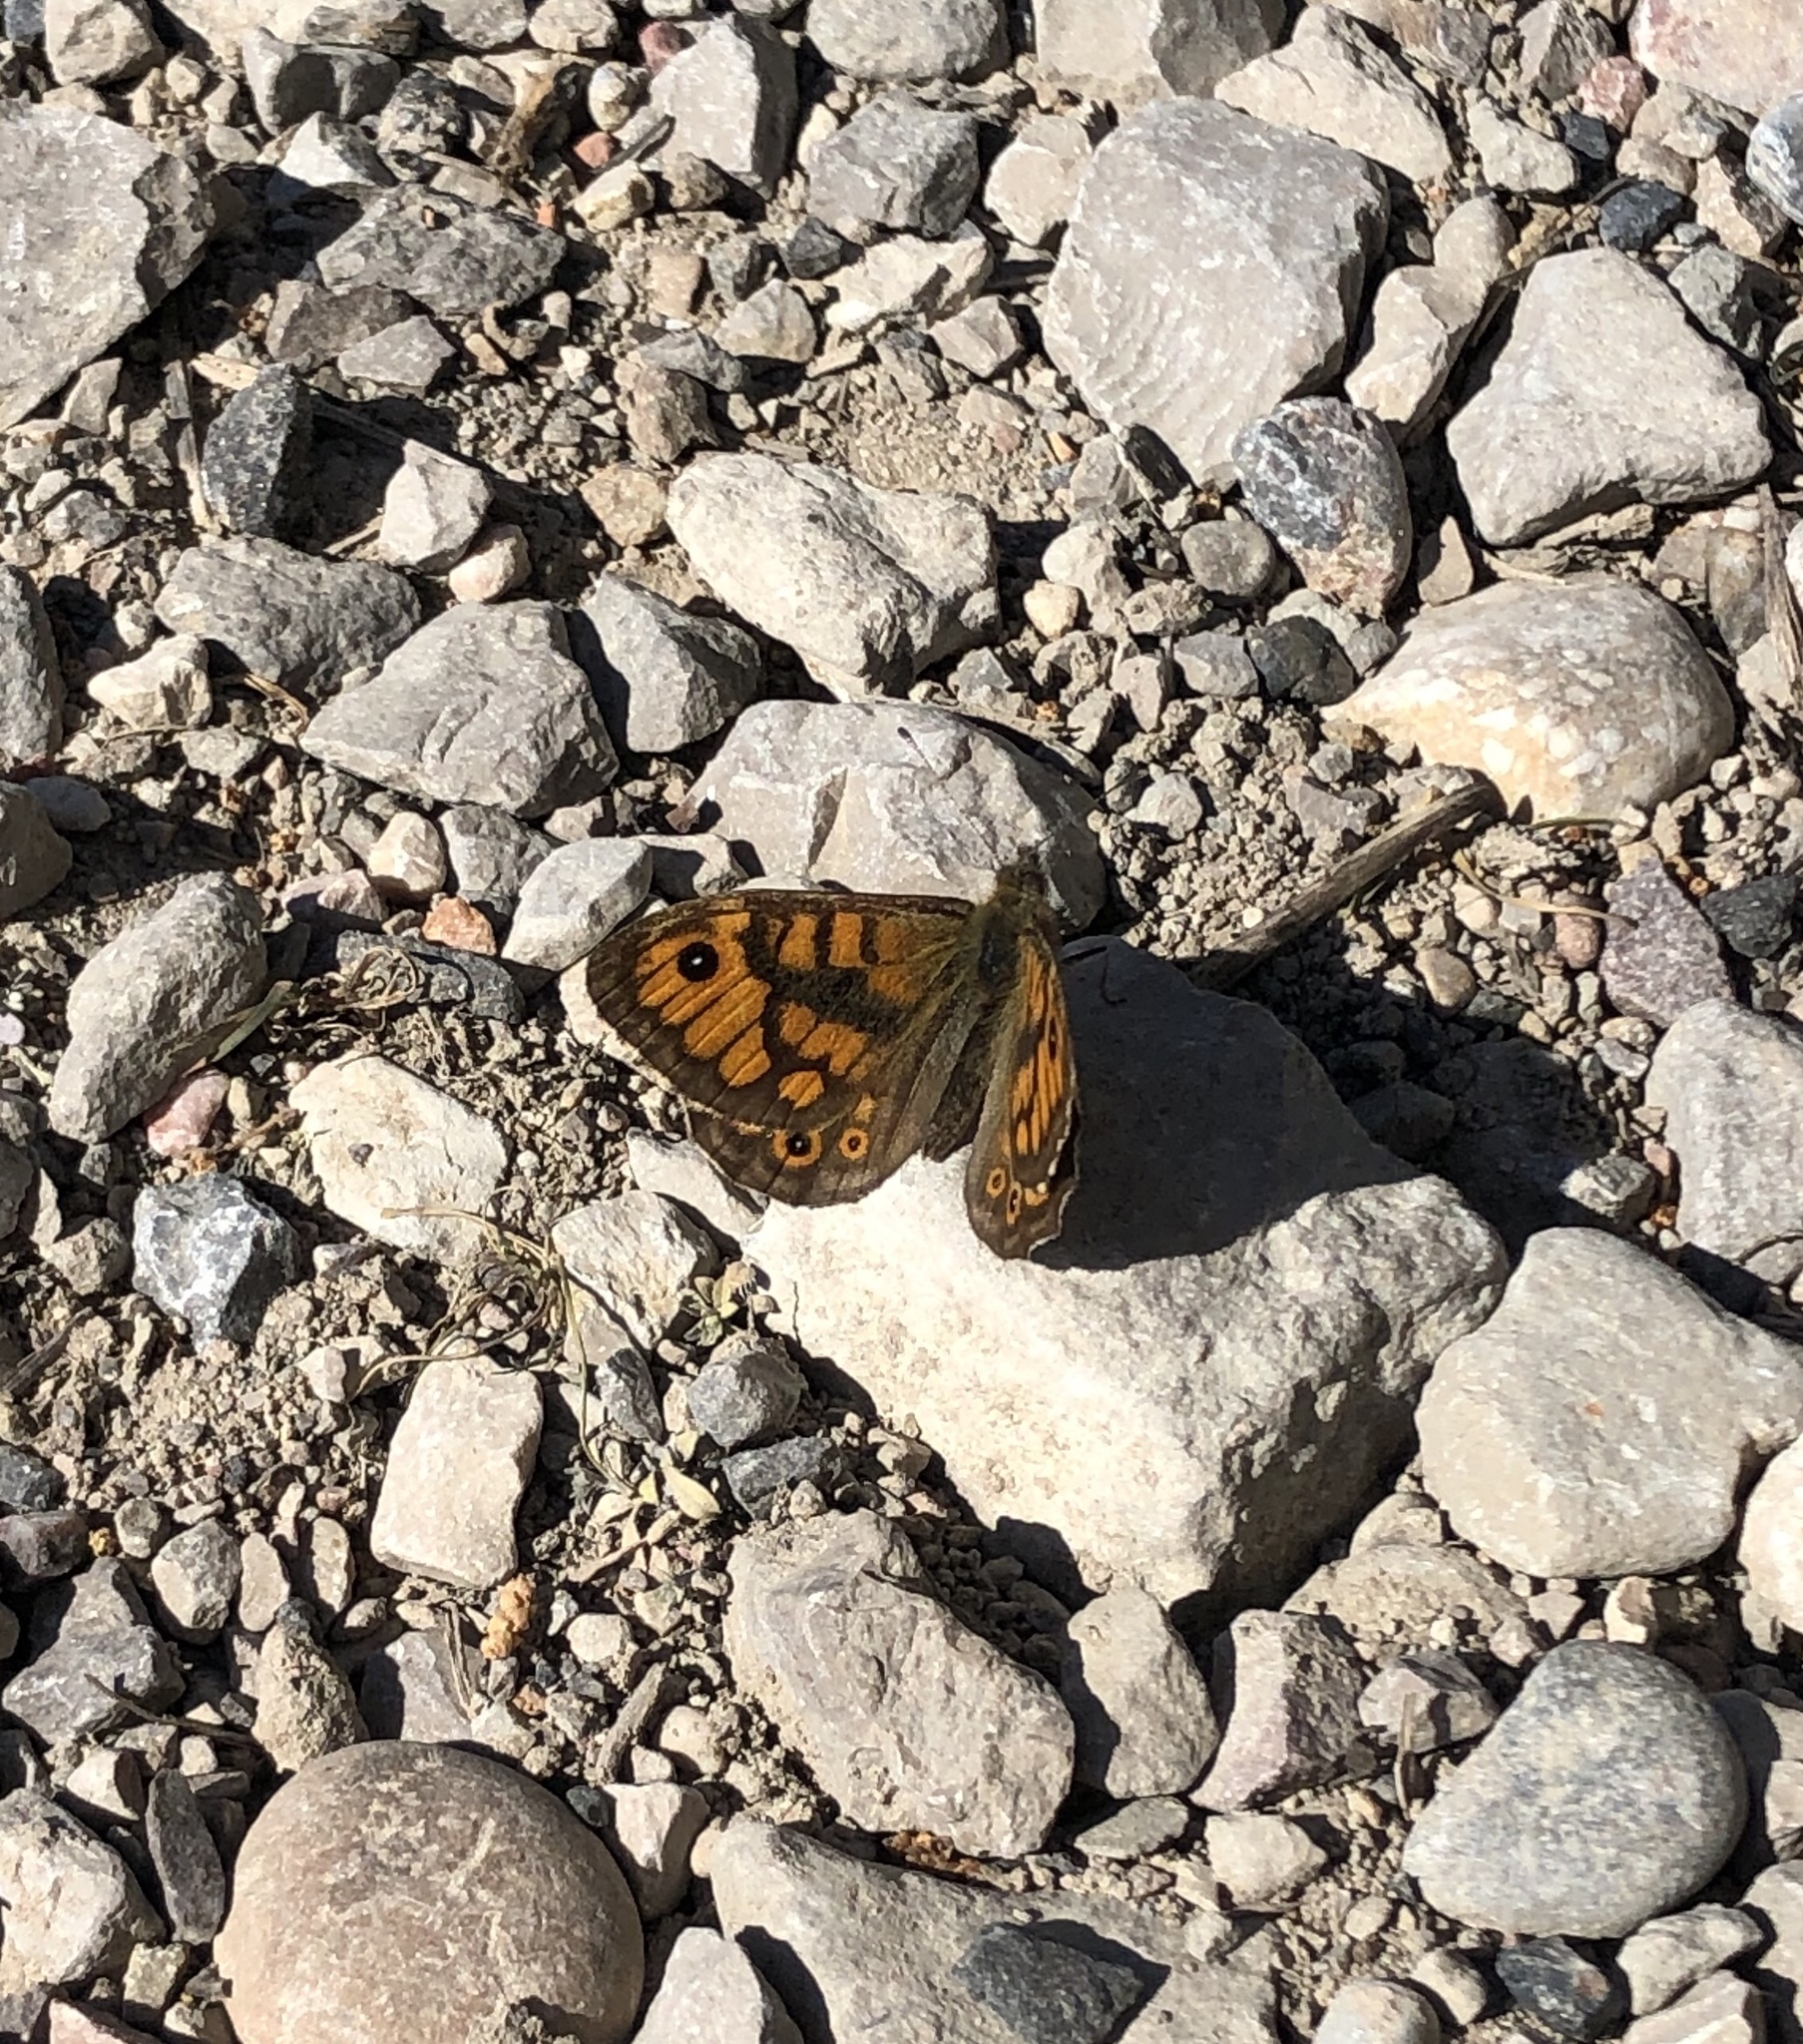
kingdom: Animalia
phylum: Arthropoda
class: Insecta
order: Lepidoptera
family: Nymphalidae
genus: Pararge
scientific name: Pararge Lasiommata megera
